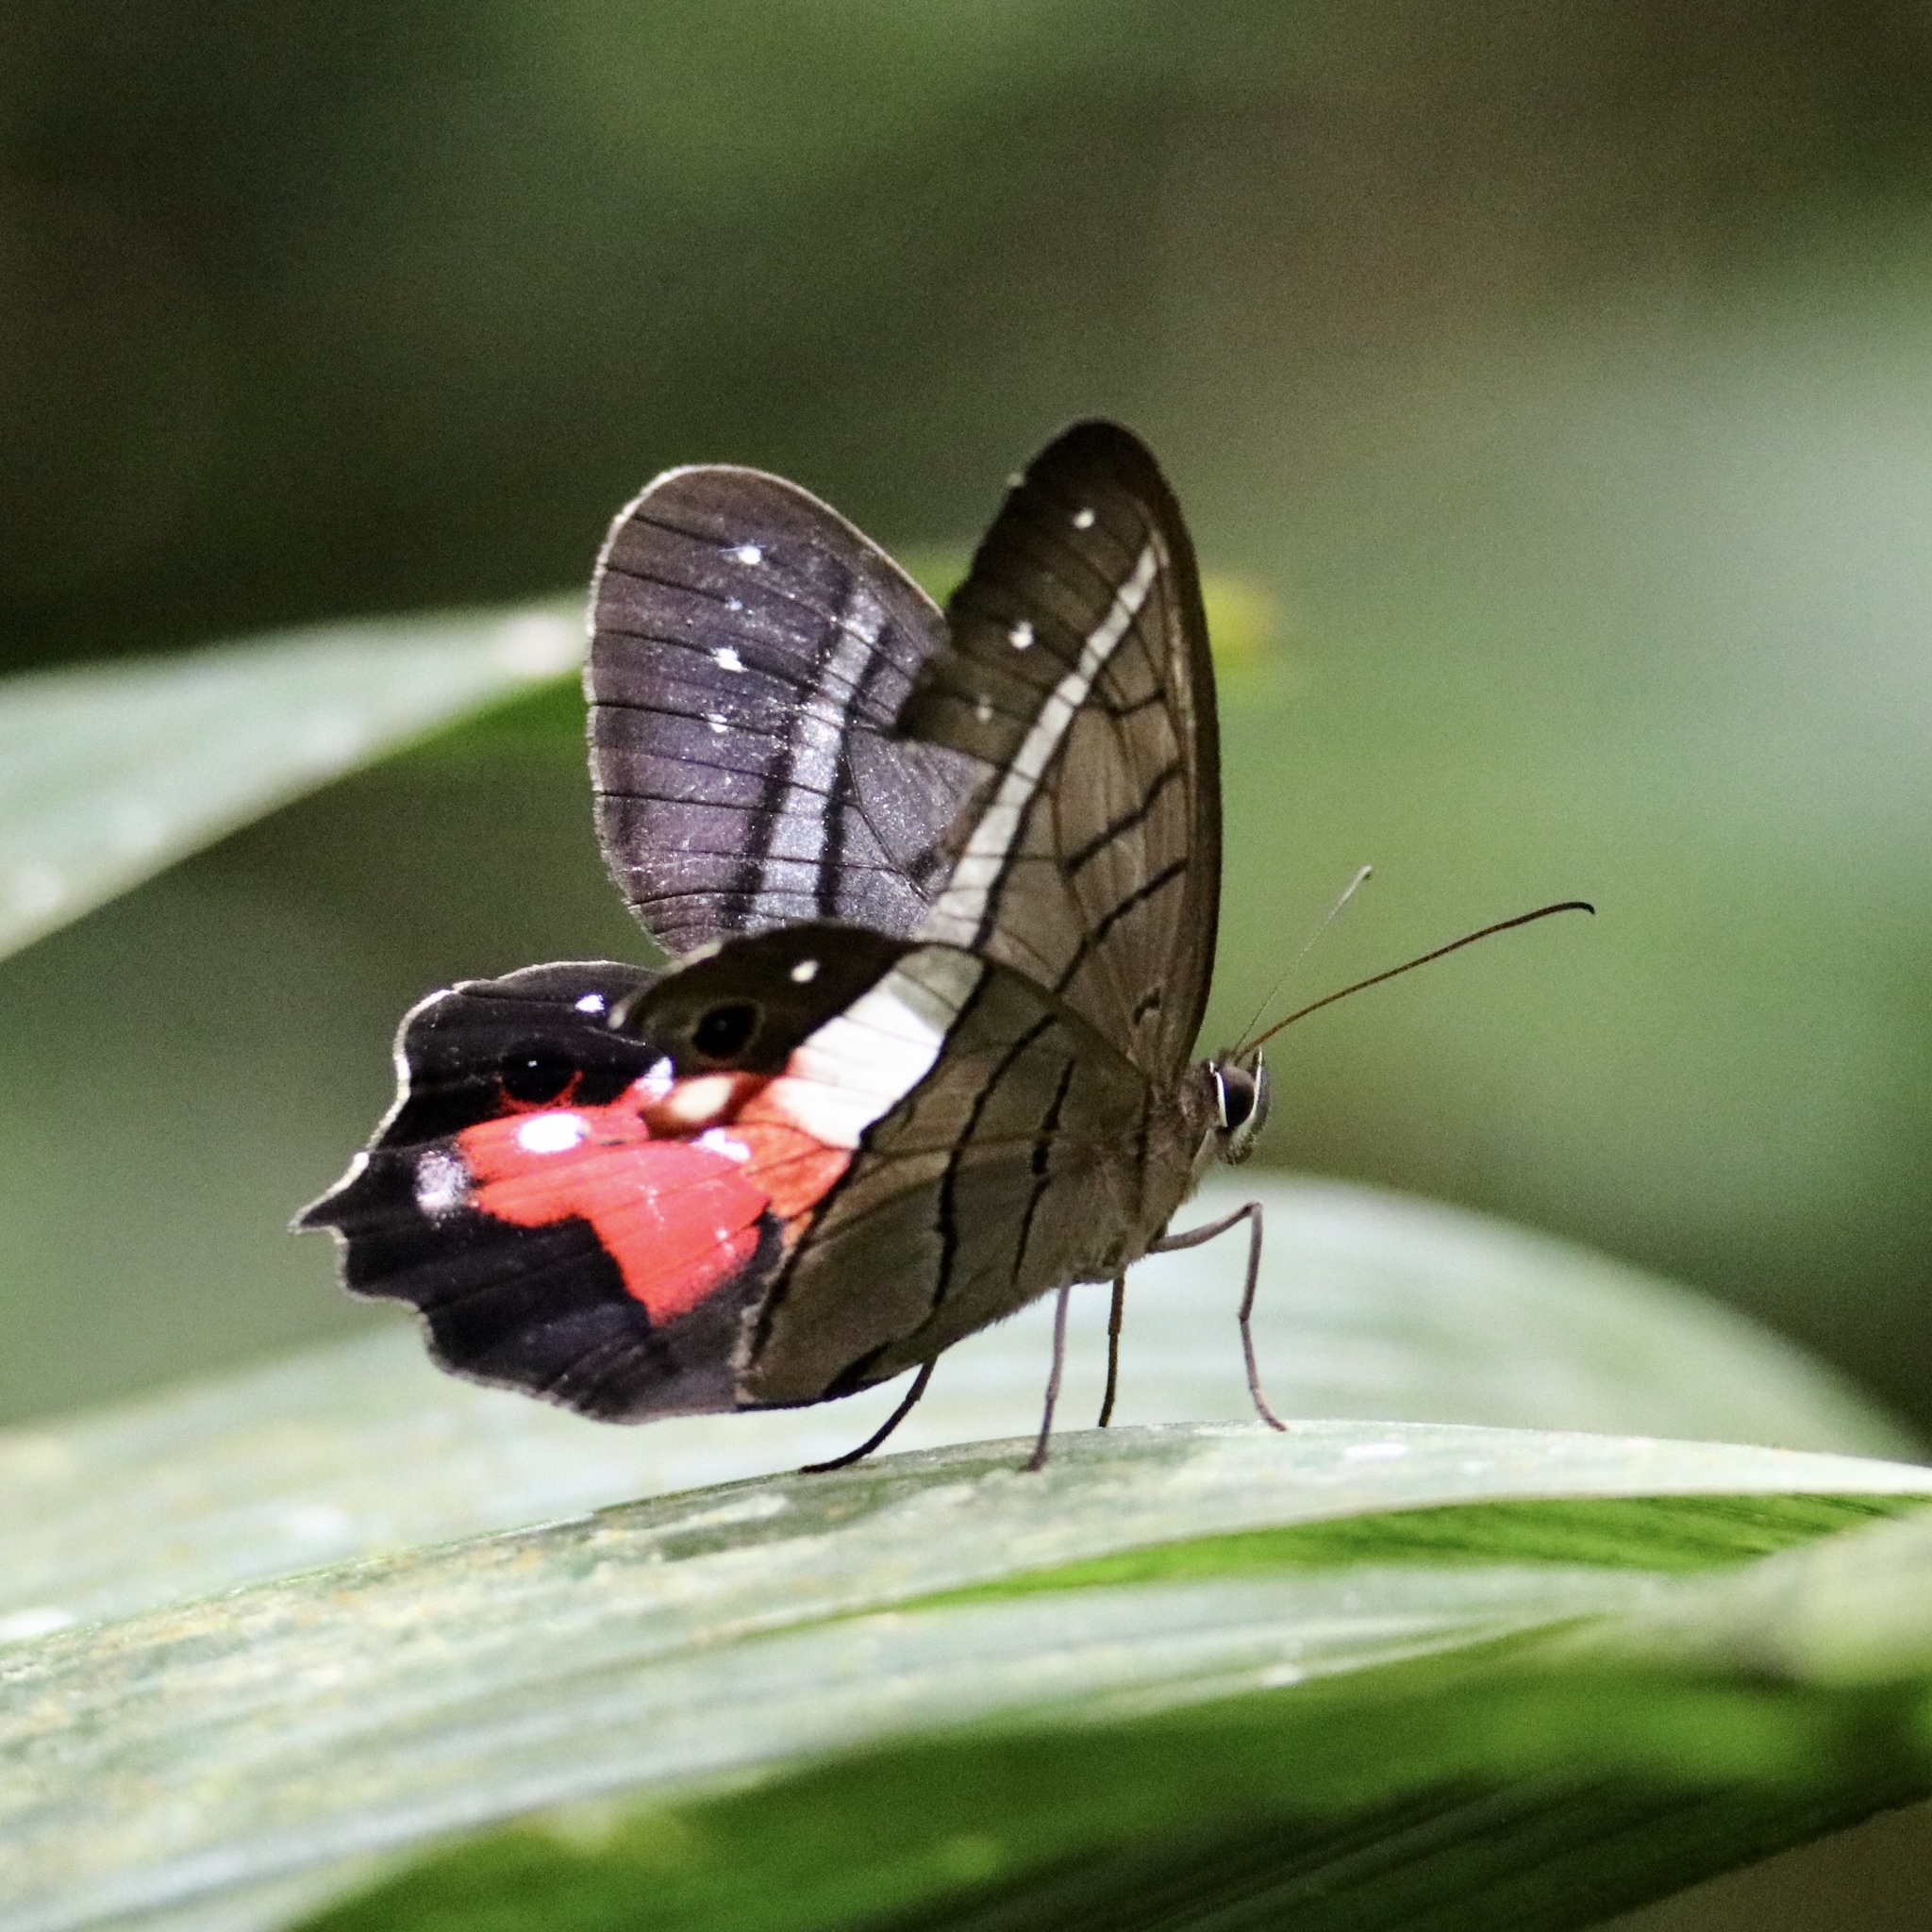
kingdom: Animalia
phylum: Arthropoda
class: Insecta
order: Lepidoptera
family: Nymphalidae
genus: Pierella
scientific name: Pierella helvina
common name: Red-washed satyr
